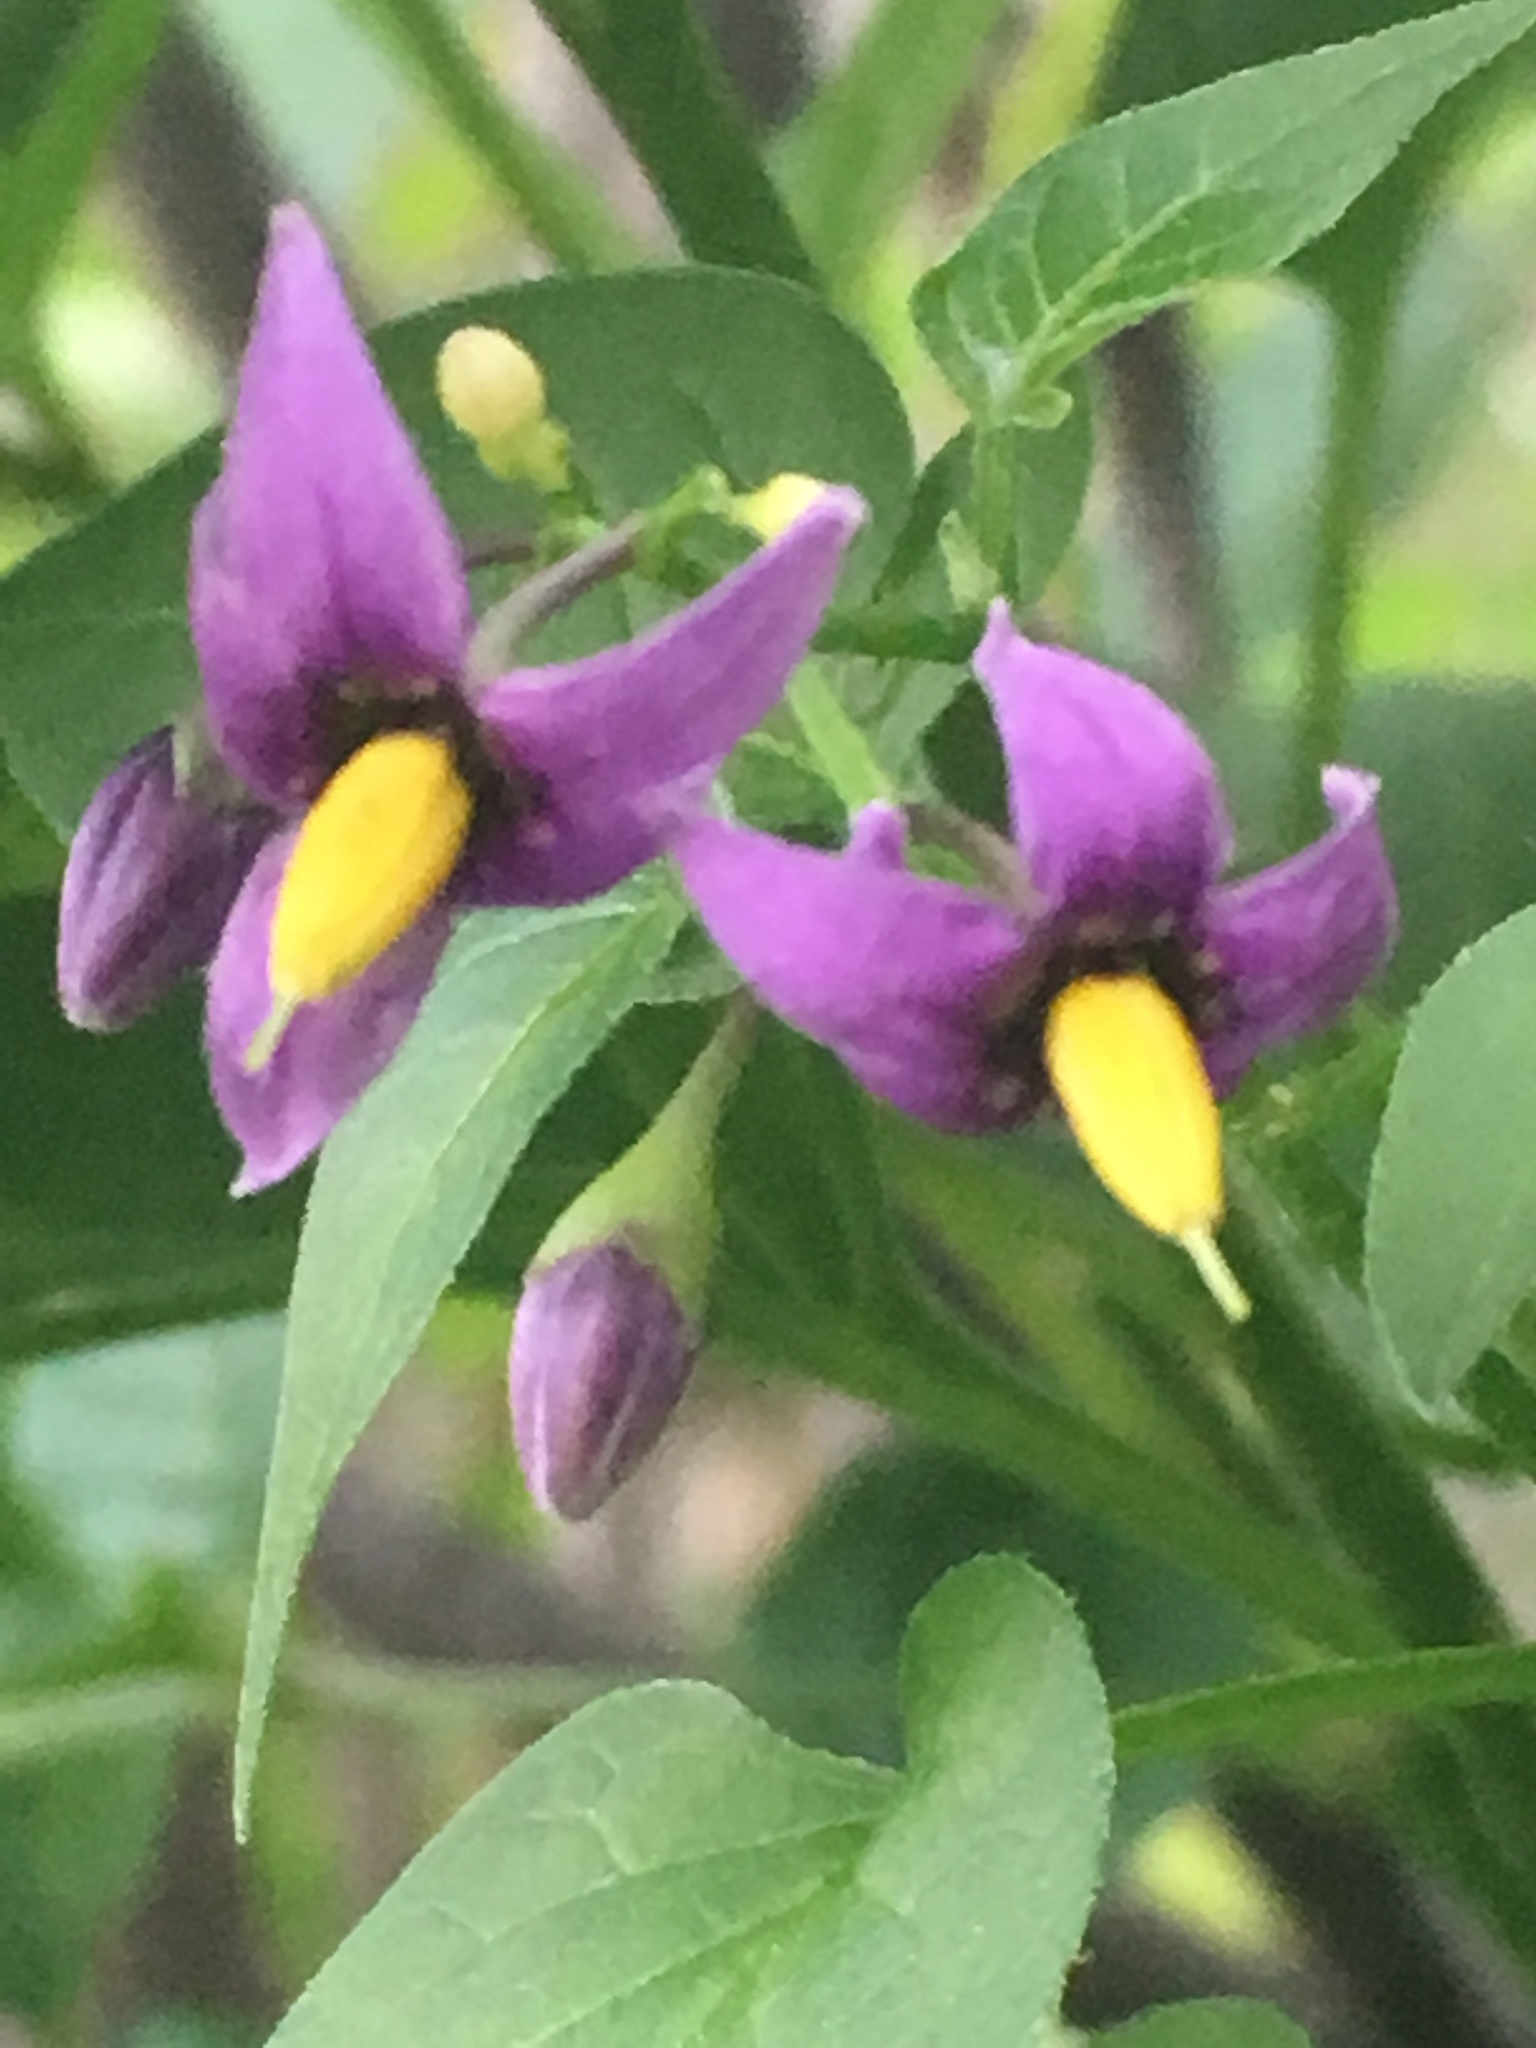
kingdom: Plantae
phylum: Tracheophyta
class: Magnoliopsida
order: Solanales
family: Solanaceae
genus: Solanum
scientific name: Solanum dulcamara
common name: Climbing nightshade
